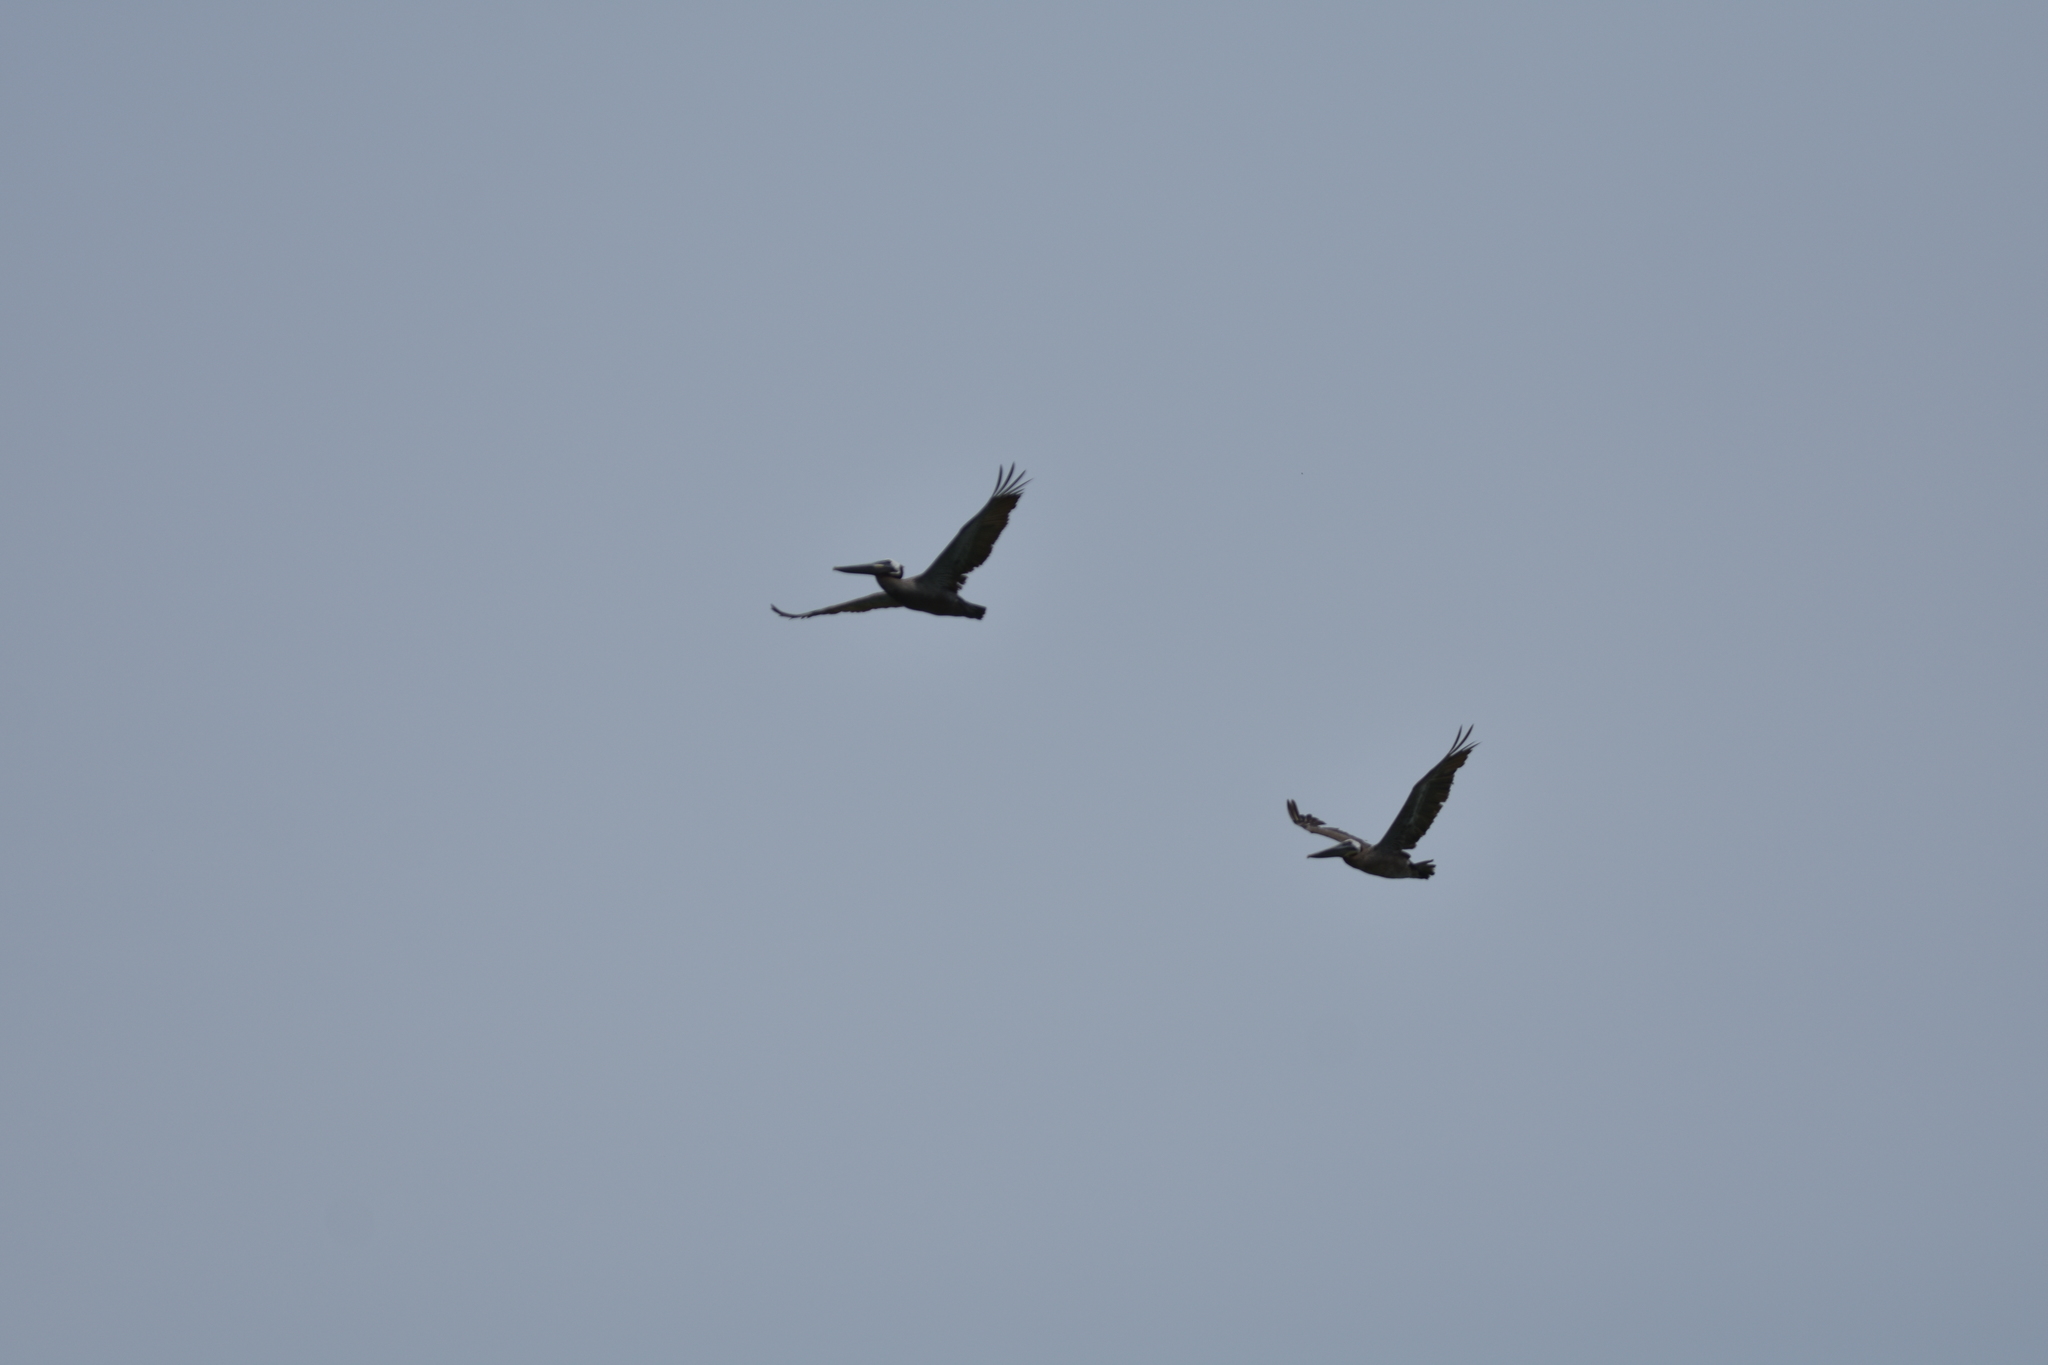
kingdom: Animalia
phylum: Chordata
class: Aves
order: Pelecaniformes
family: Pelecanidae
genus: Pelecanus
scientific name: Pelecanus occidentalis
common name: Brown pelican
